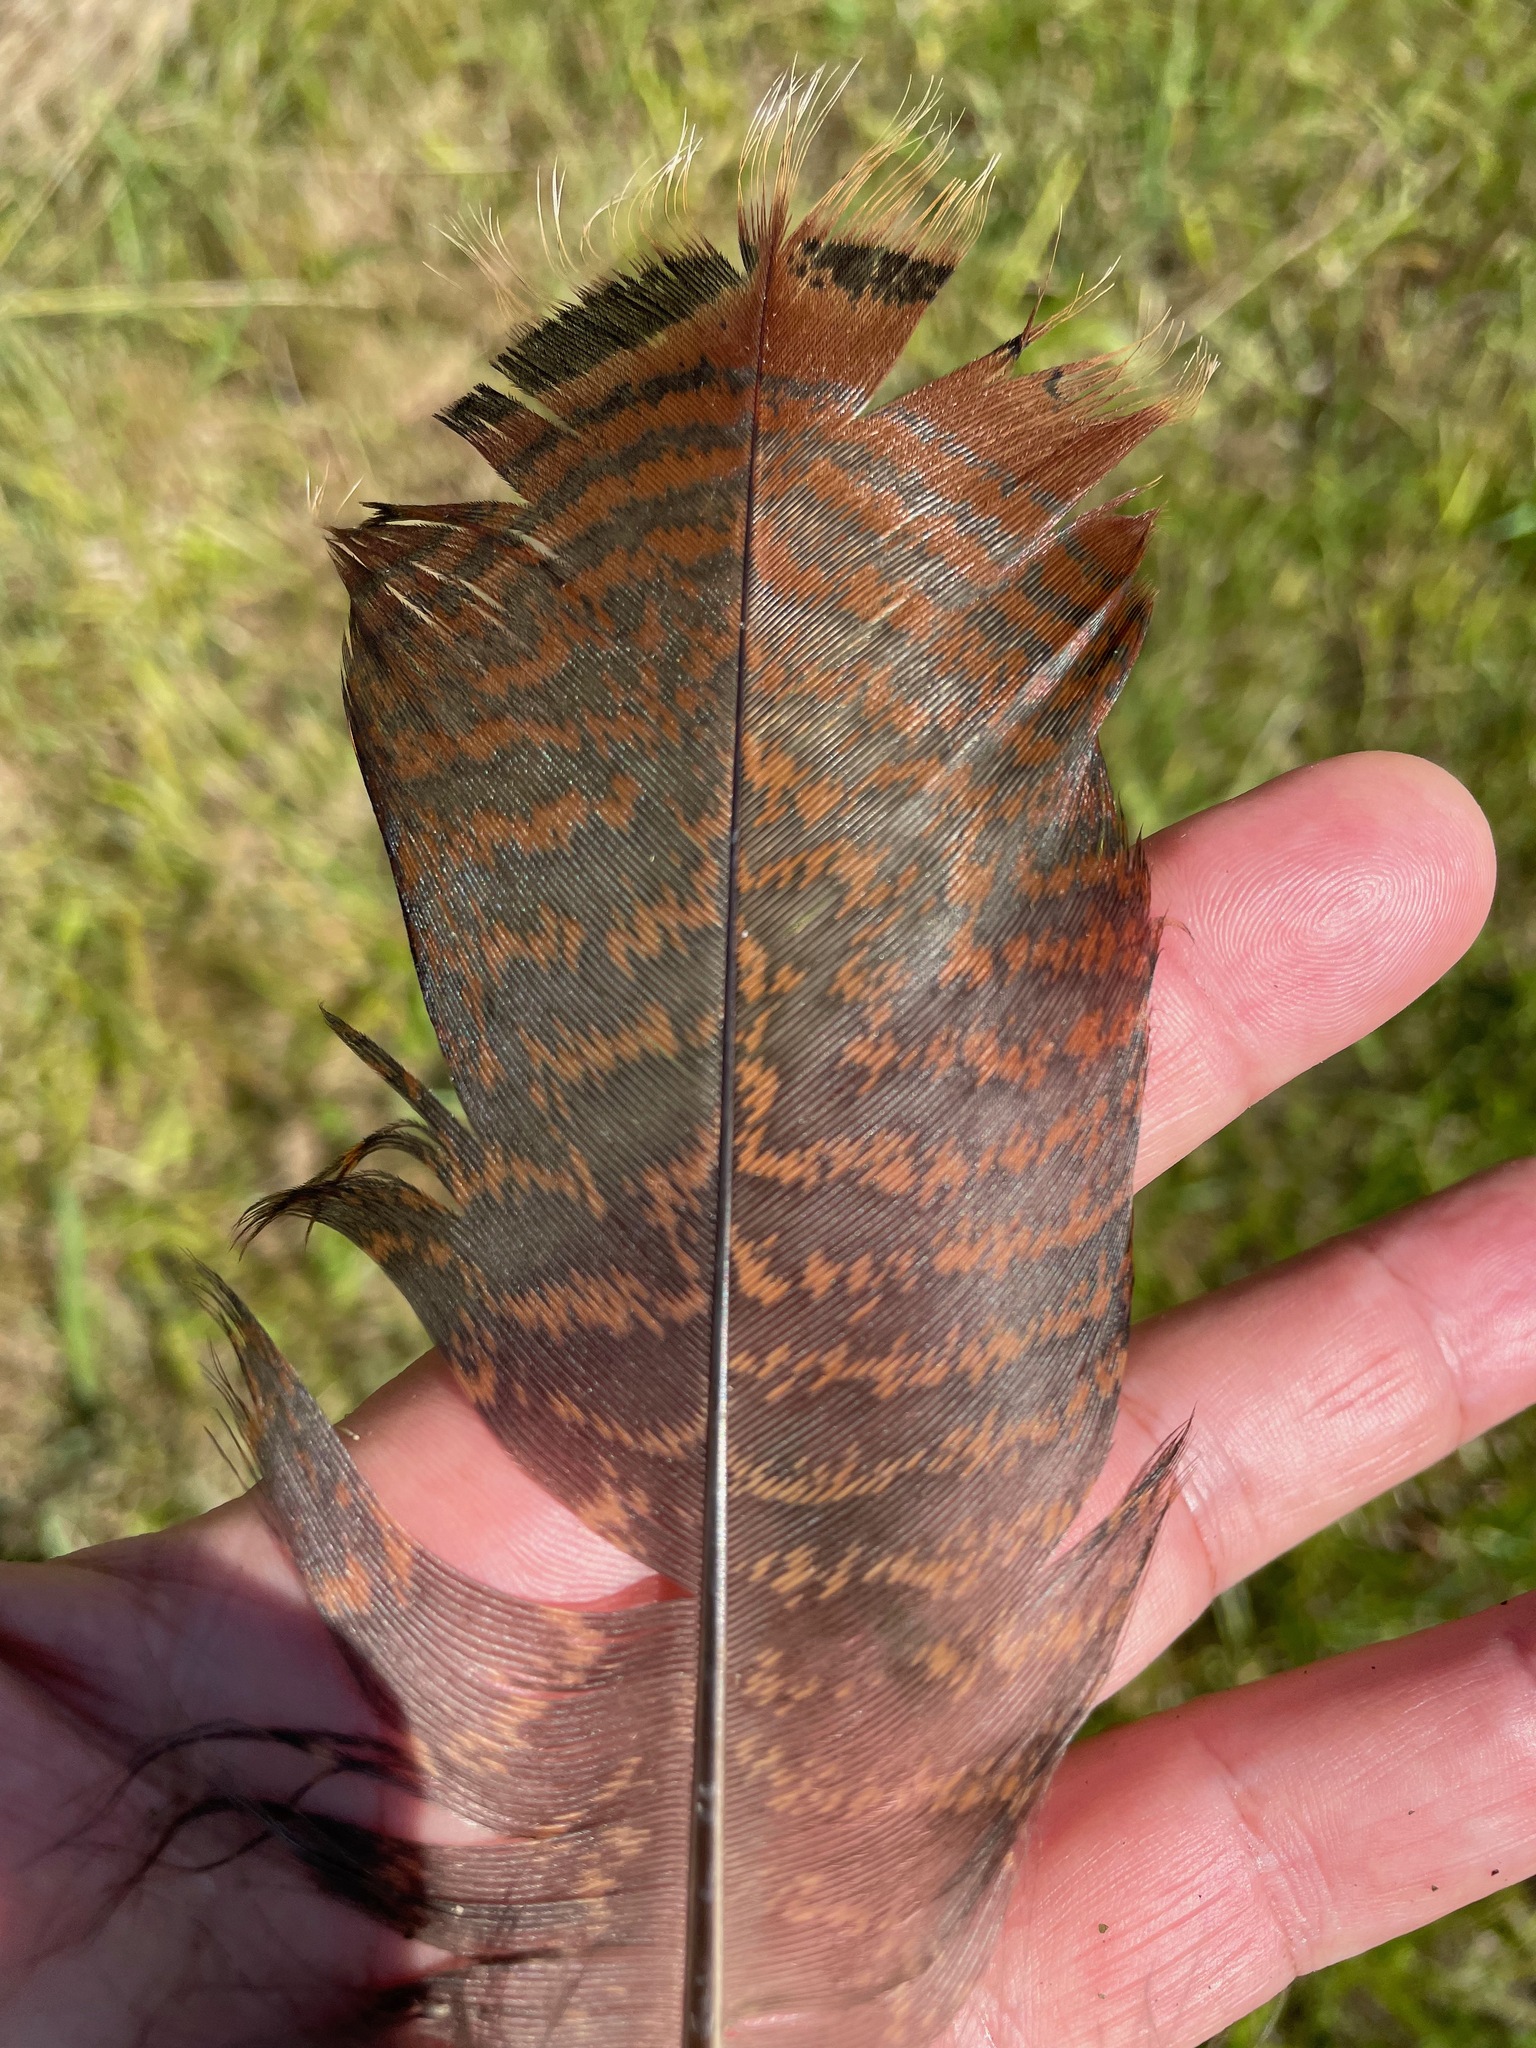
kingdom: Animalia
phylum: Chordata
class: Aves
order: Galliformes
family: Phasianidae
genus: Meleagris
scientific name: Meleagris gallopavo
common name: Wild turkey
